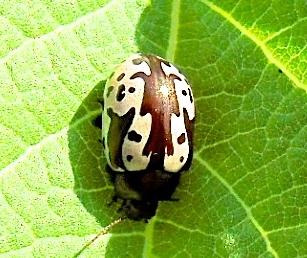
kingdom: Animalia
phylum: Arthropoda
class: Insecta
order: Coleoptera
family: Chrysomelidae
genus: Calligrapha
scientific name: Calligrapha intermedia
